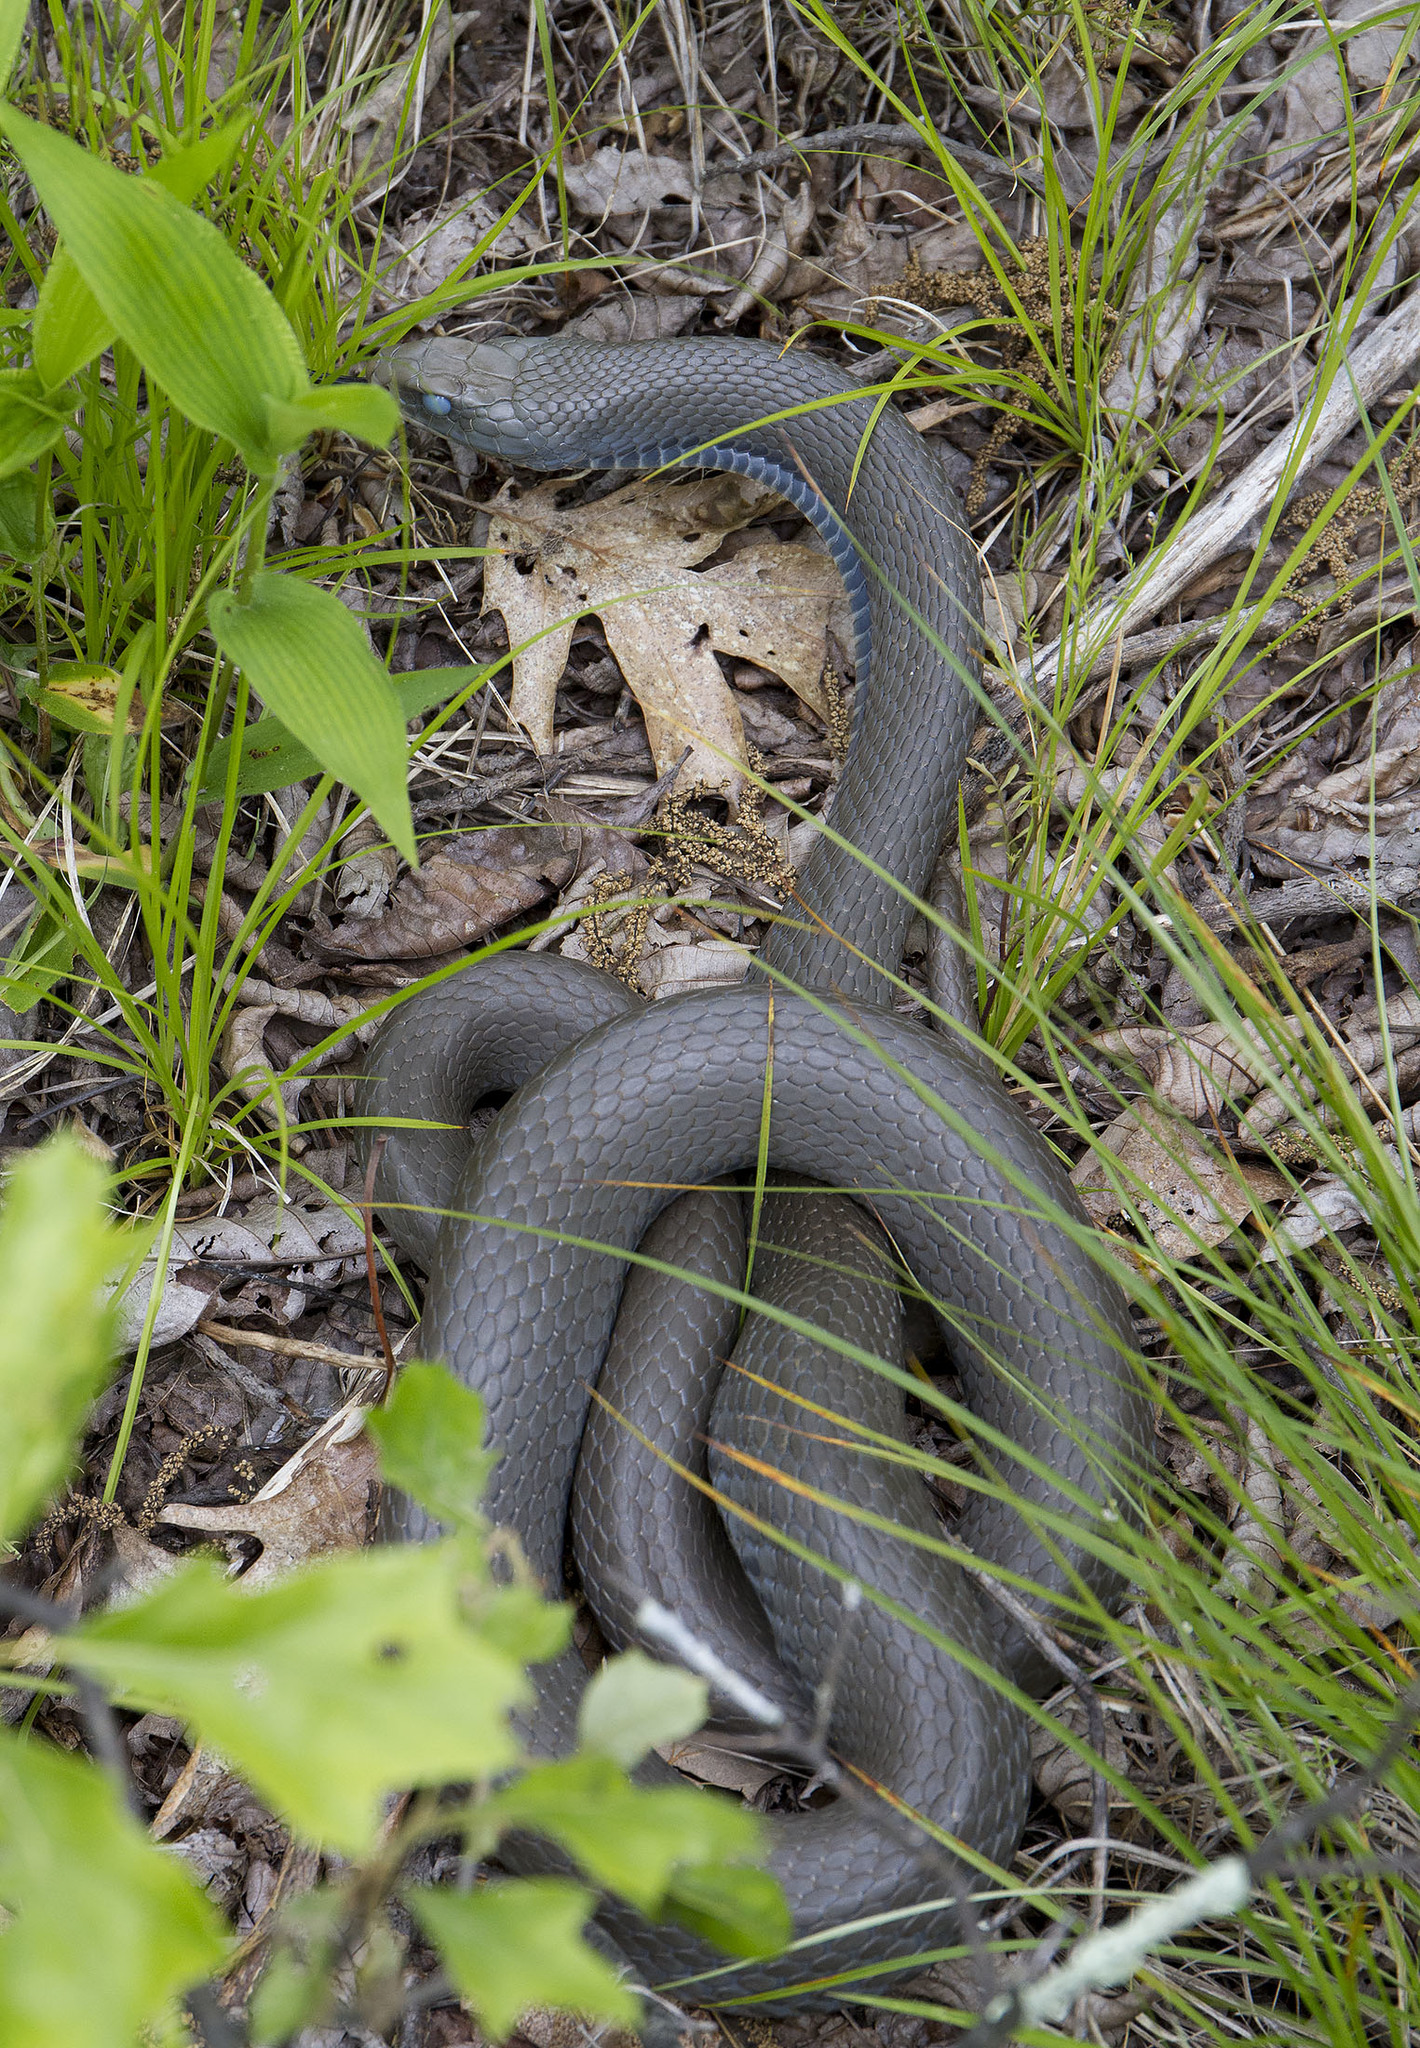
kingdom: Animalia
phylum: Chordata
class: Squamata
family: Colubridae
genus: Coluber
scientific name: Coluber constrictor
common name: Eastern racer
